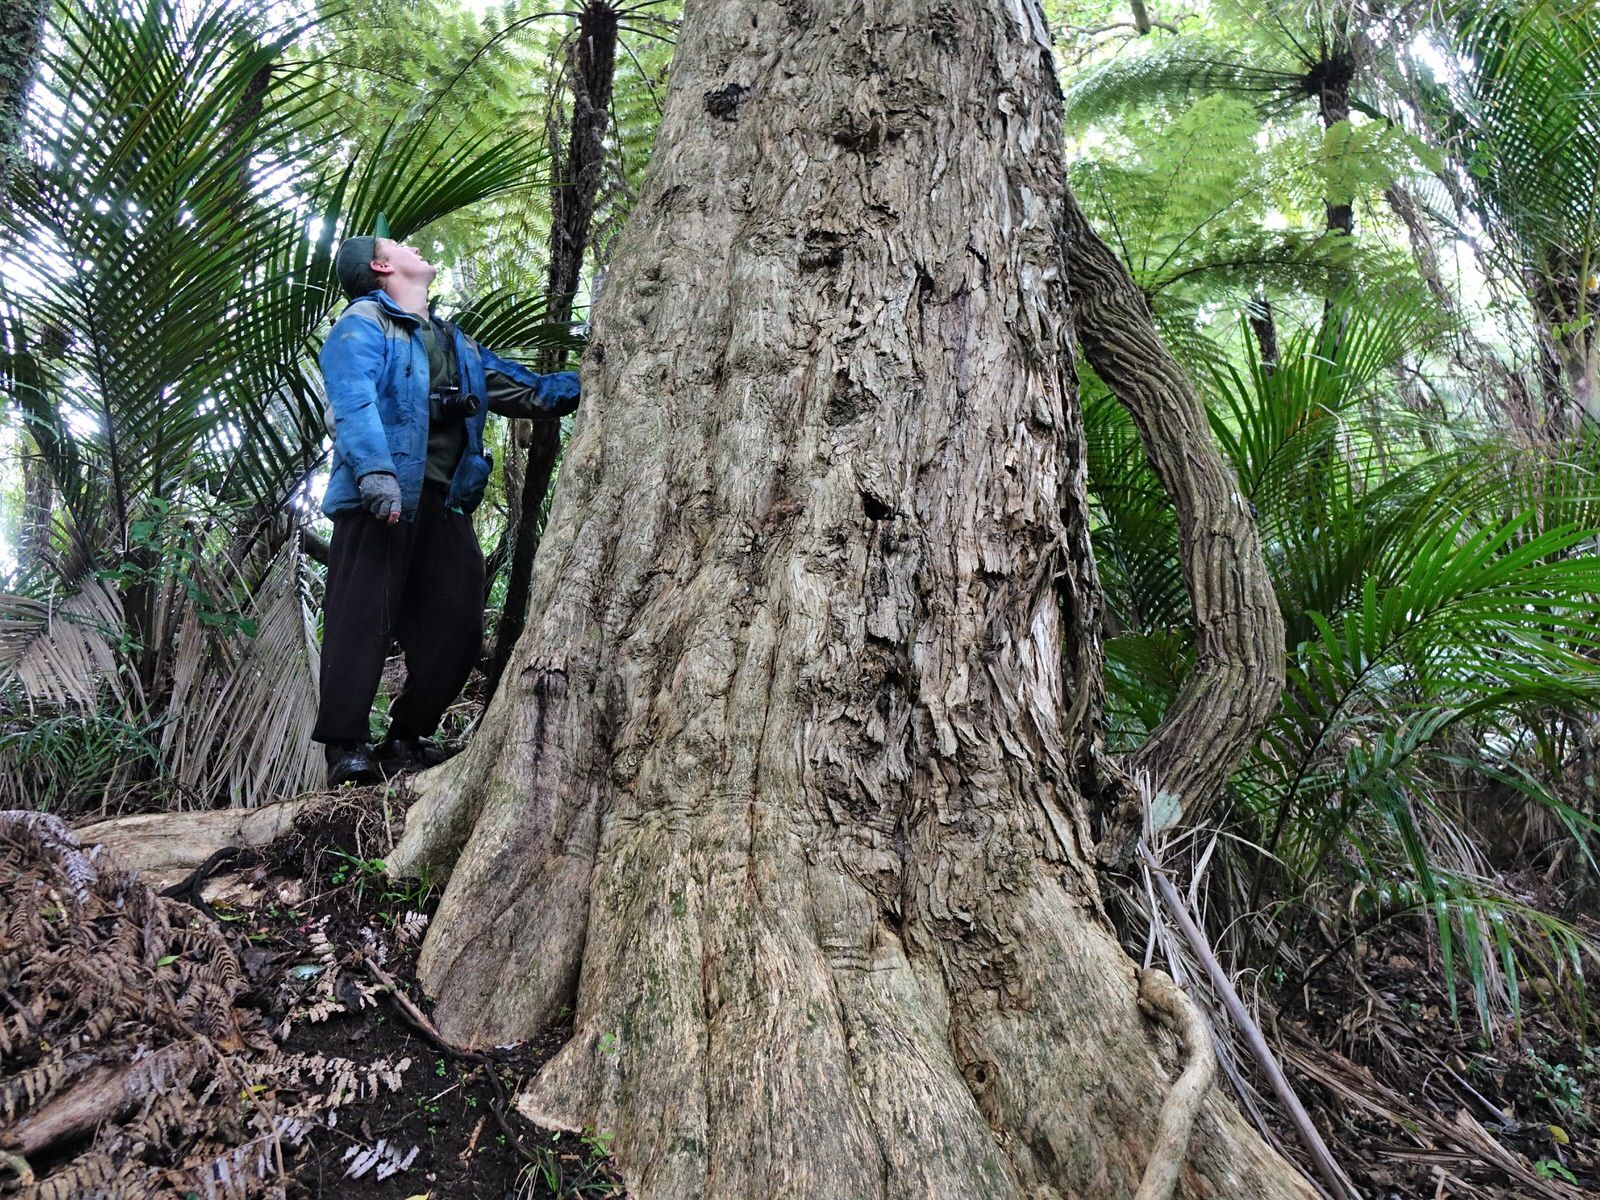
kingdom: Plantae
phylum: Tracheophyta
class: Magnoliopsida
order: Lamiales
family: Lamiaceae
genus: Vitex
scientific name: Vitex lucens
